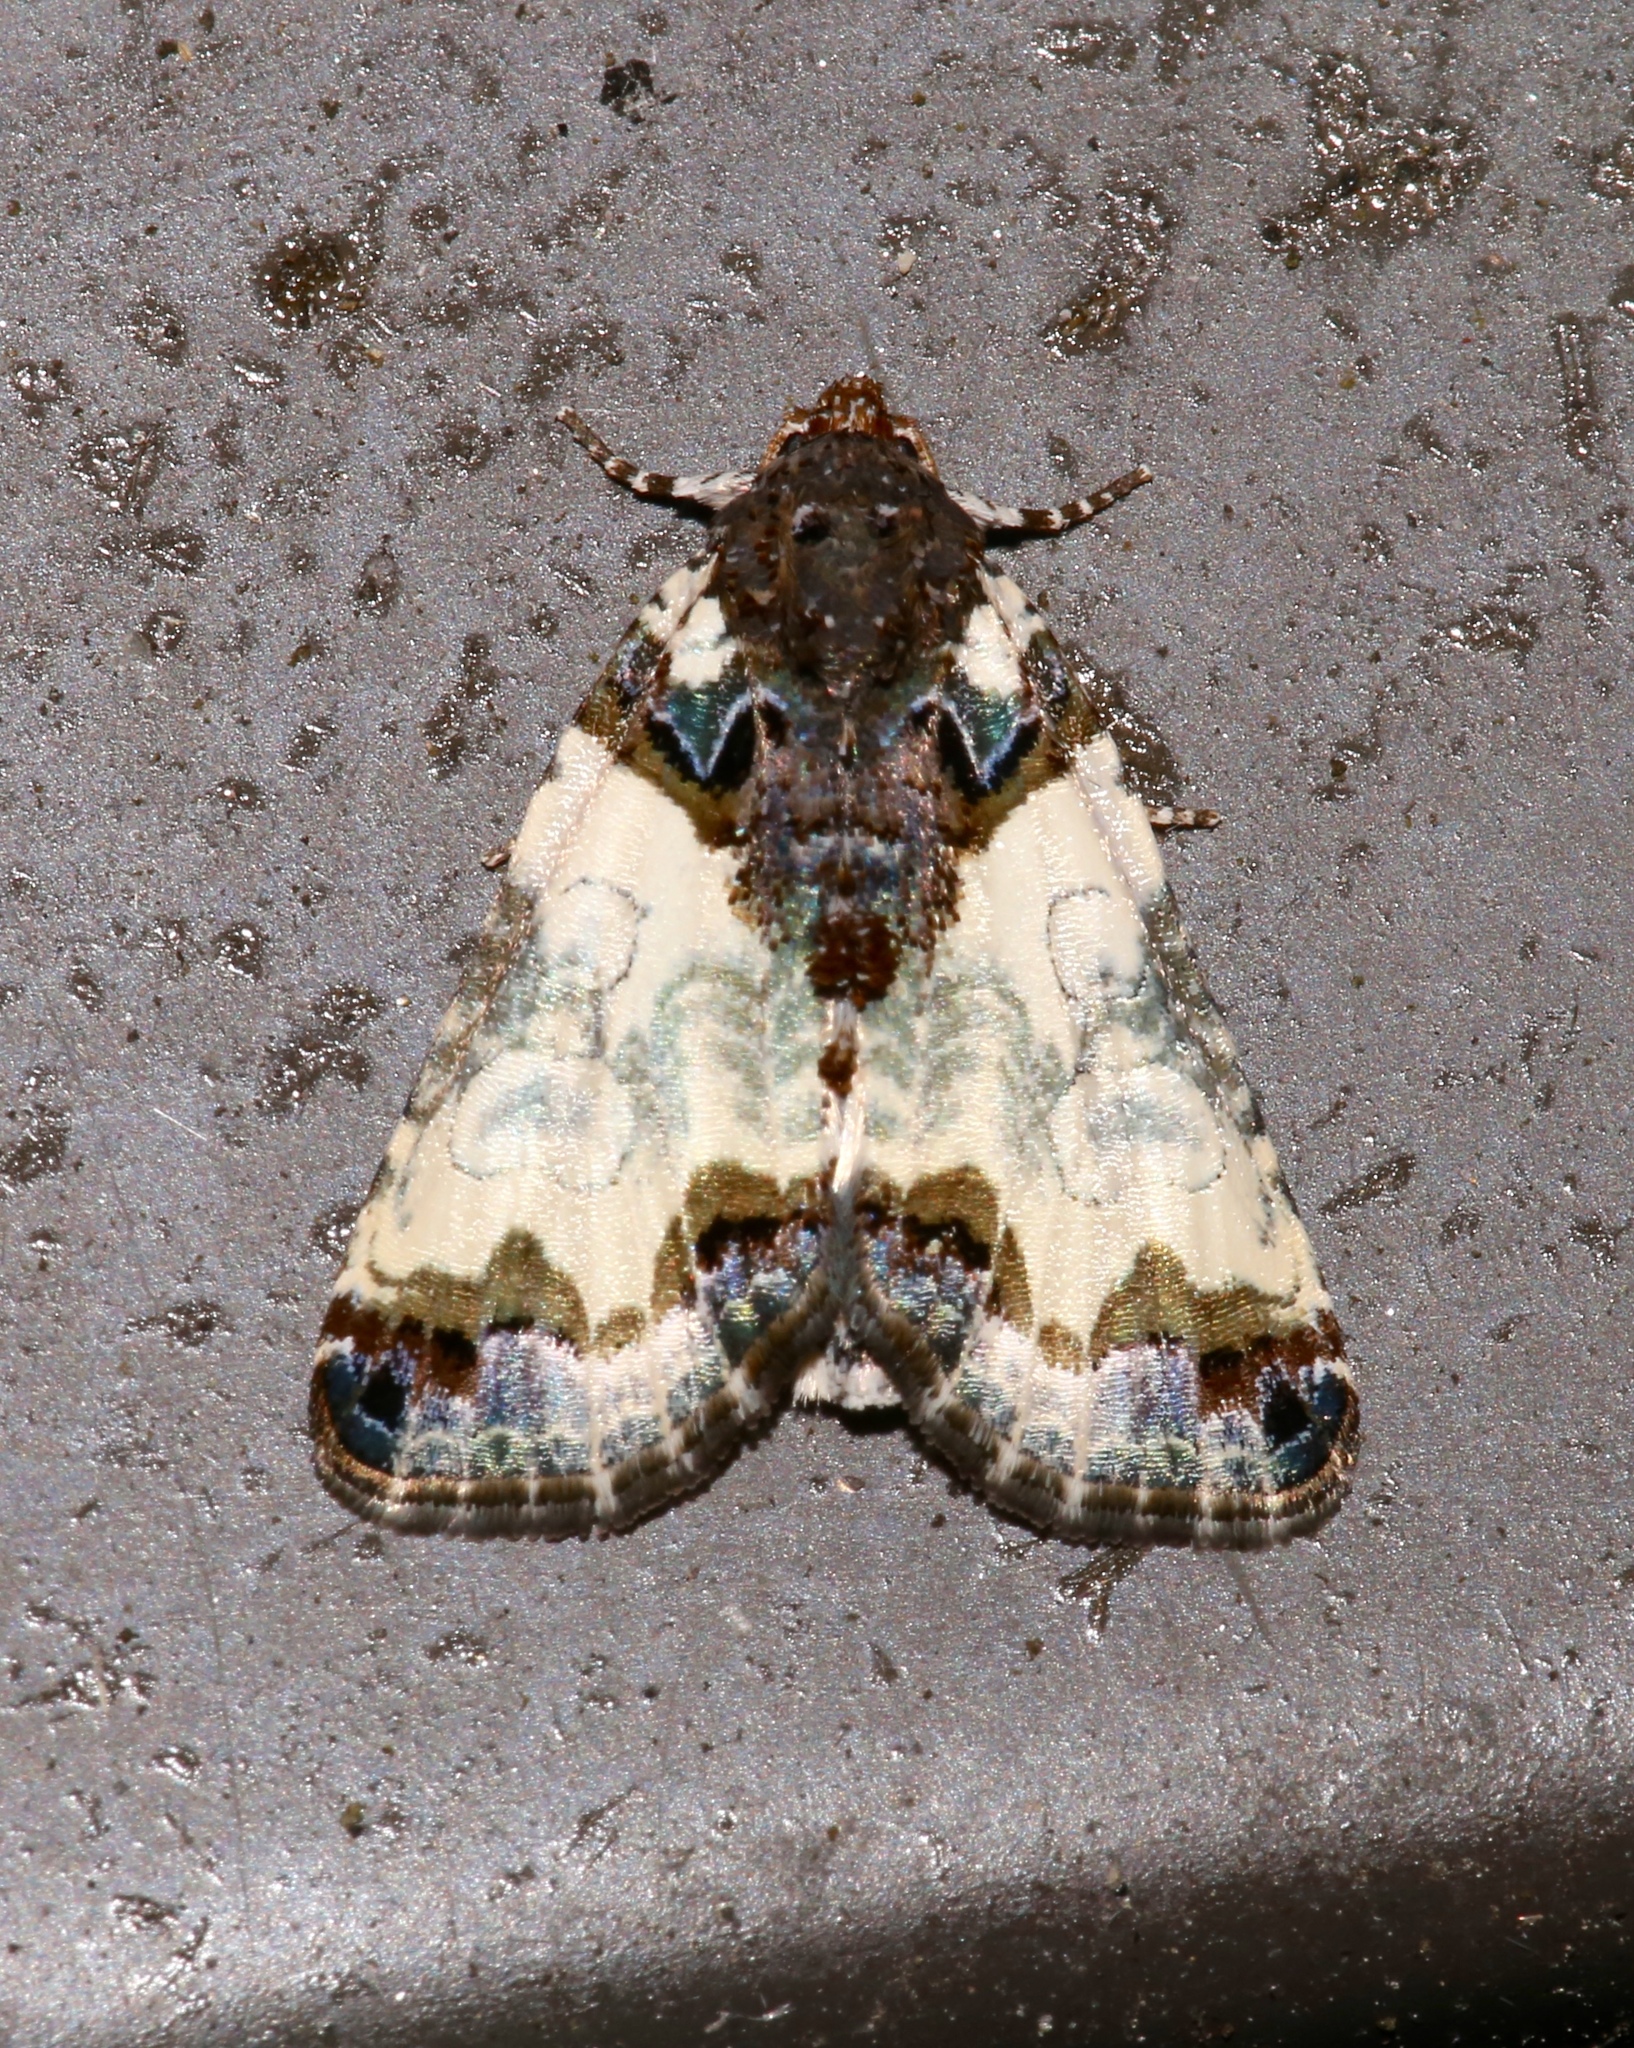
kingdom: Animalia
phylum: Arthropoda
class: Insecta
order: Lepidoptera
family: Noctuidae
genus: Cerma
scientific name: Cerma cerintha
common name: Tufted bird-dropping moth
